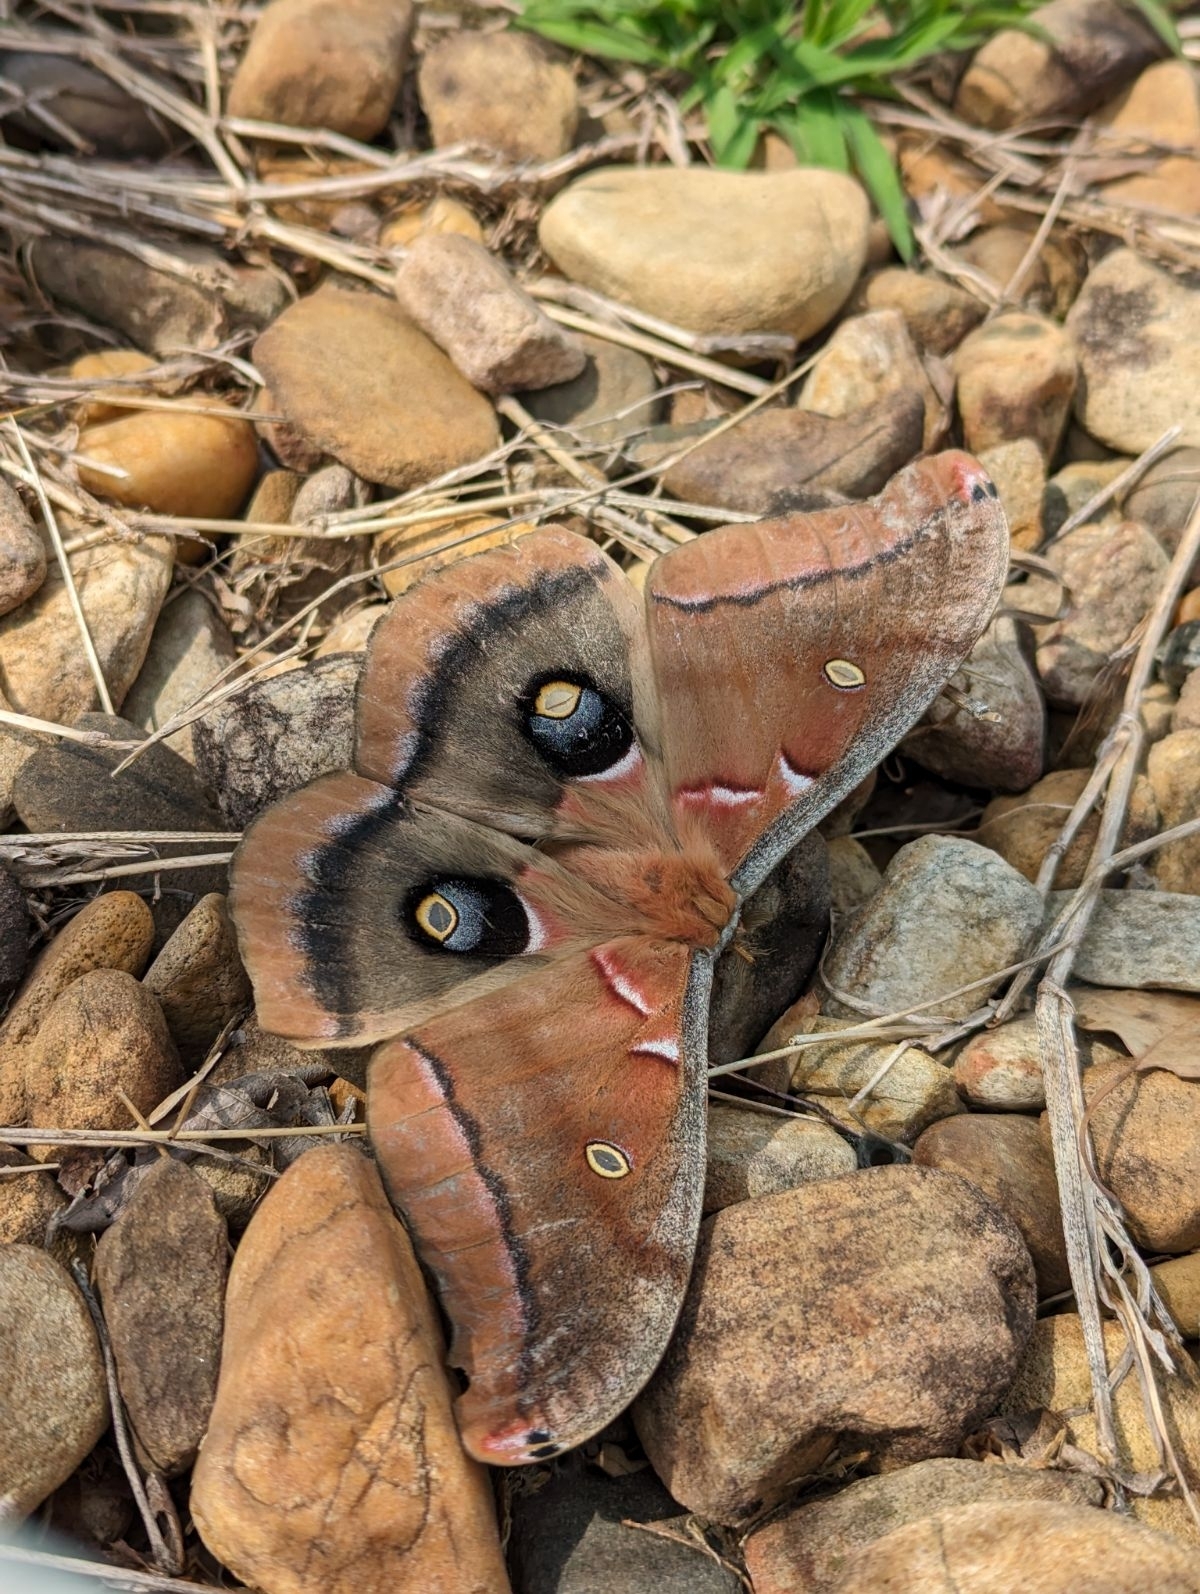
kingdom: Animalia
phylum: Arthropoda
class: Insecta
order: Lepidoptera
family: Saturniidae
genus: Antheraea
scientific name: Antheraea polyphemus
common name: Polyphemus moth
